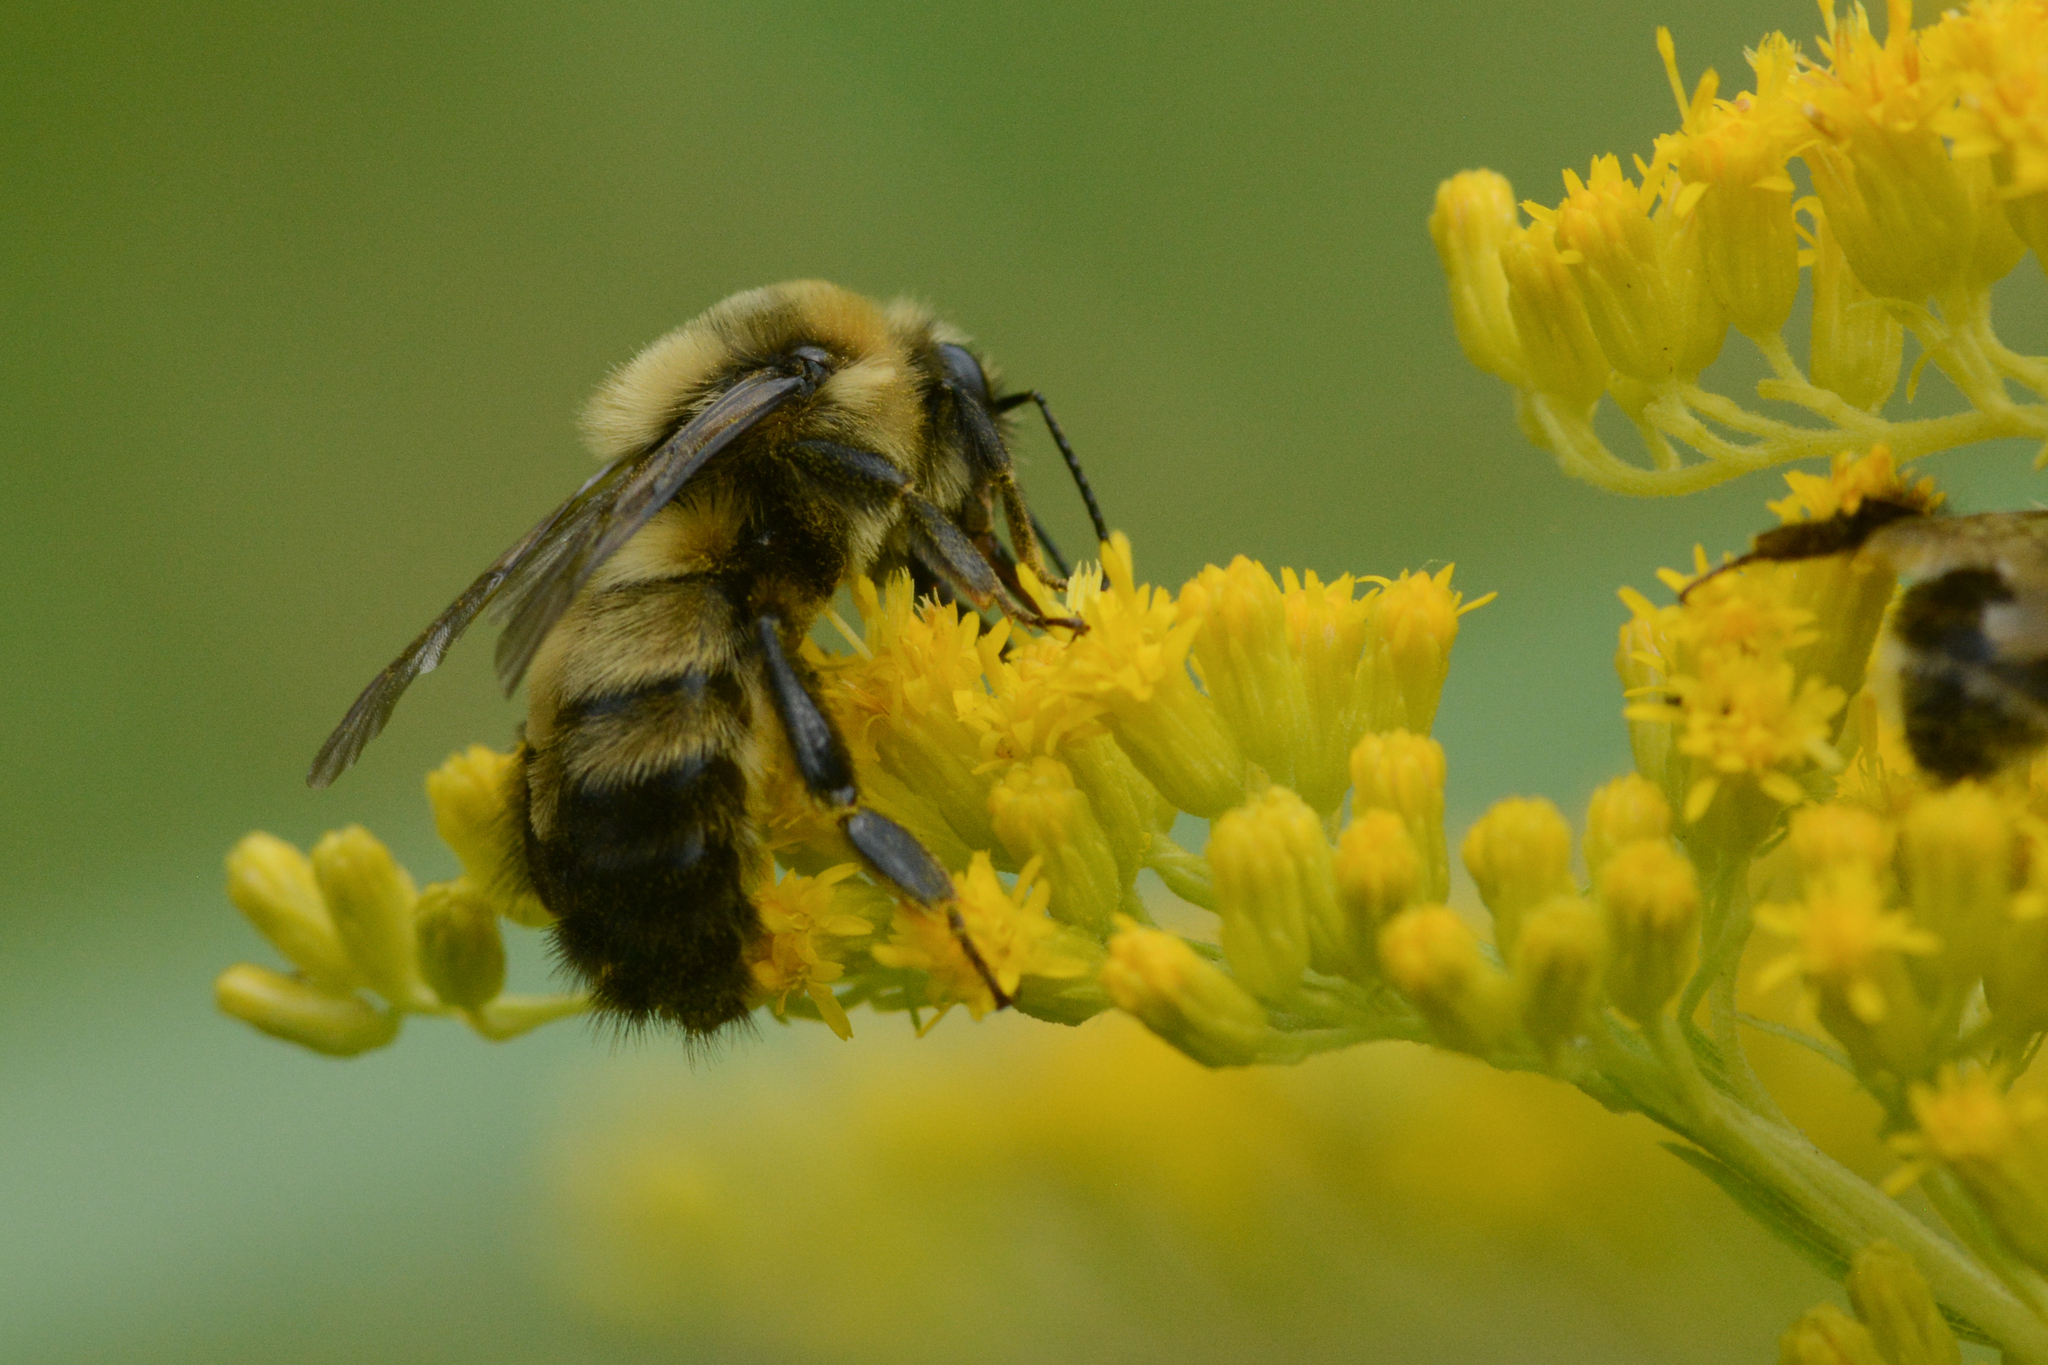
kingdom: Animalia
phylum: Arthropoda
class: Insecta
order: Hymenoptera
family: Apidae
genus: Bombus
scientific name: Bombus rufocinctus
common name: Red-belted bumble bee
